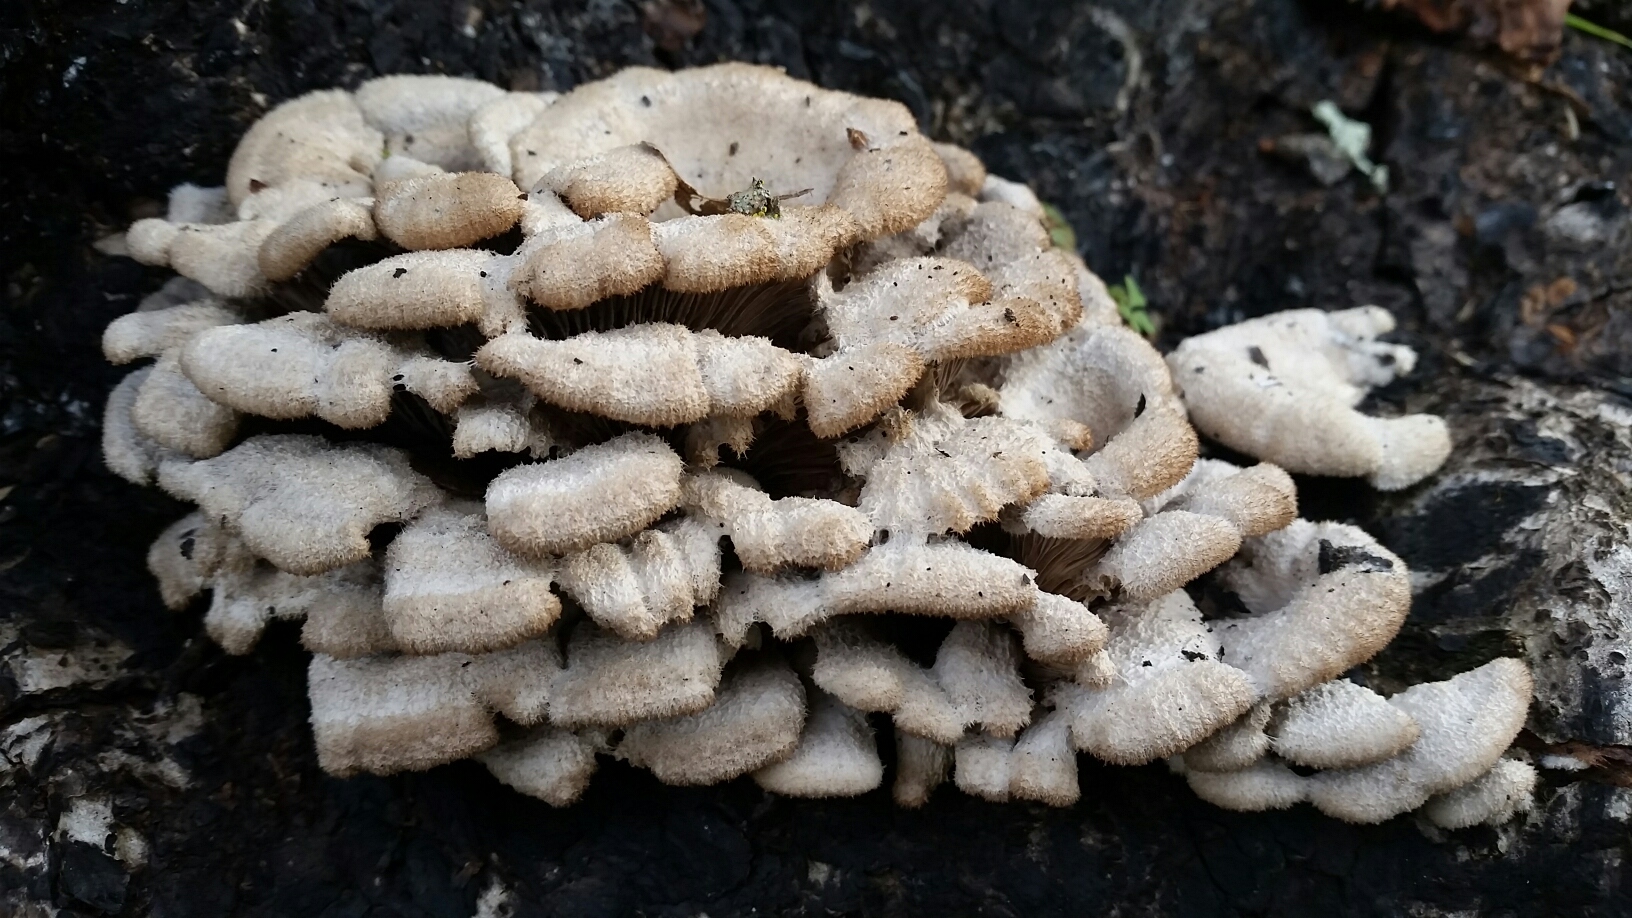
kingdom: Fungi
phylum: Basidiomycota
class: Agaricomycetes
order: Agaricales
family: Schizophyllaceae
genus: Schizophyllum
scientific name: Schizophyllum commune
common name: Common porecrust
